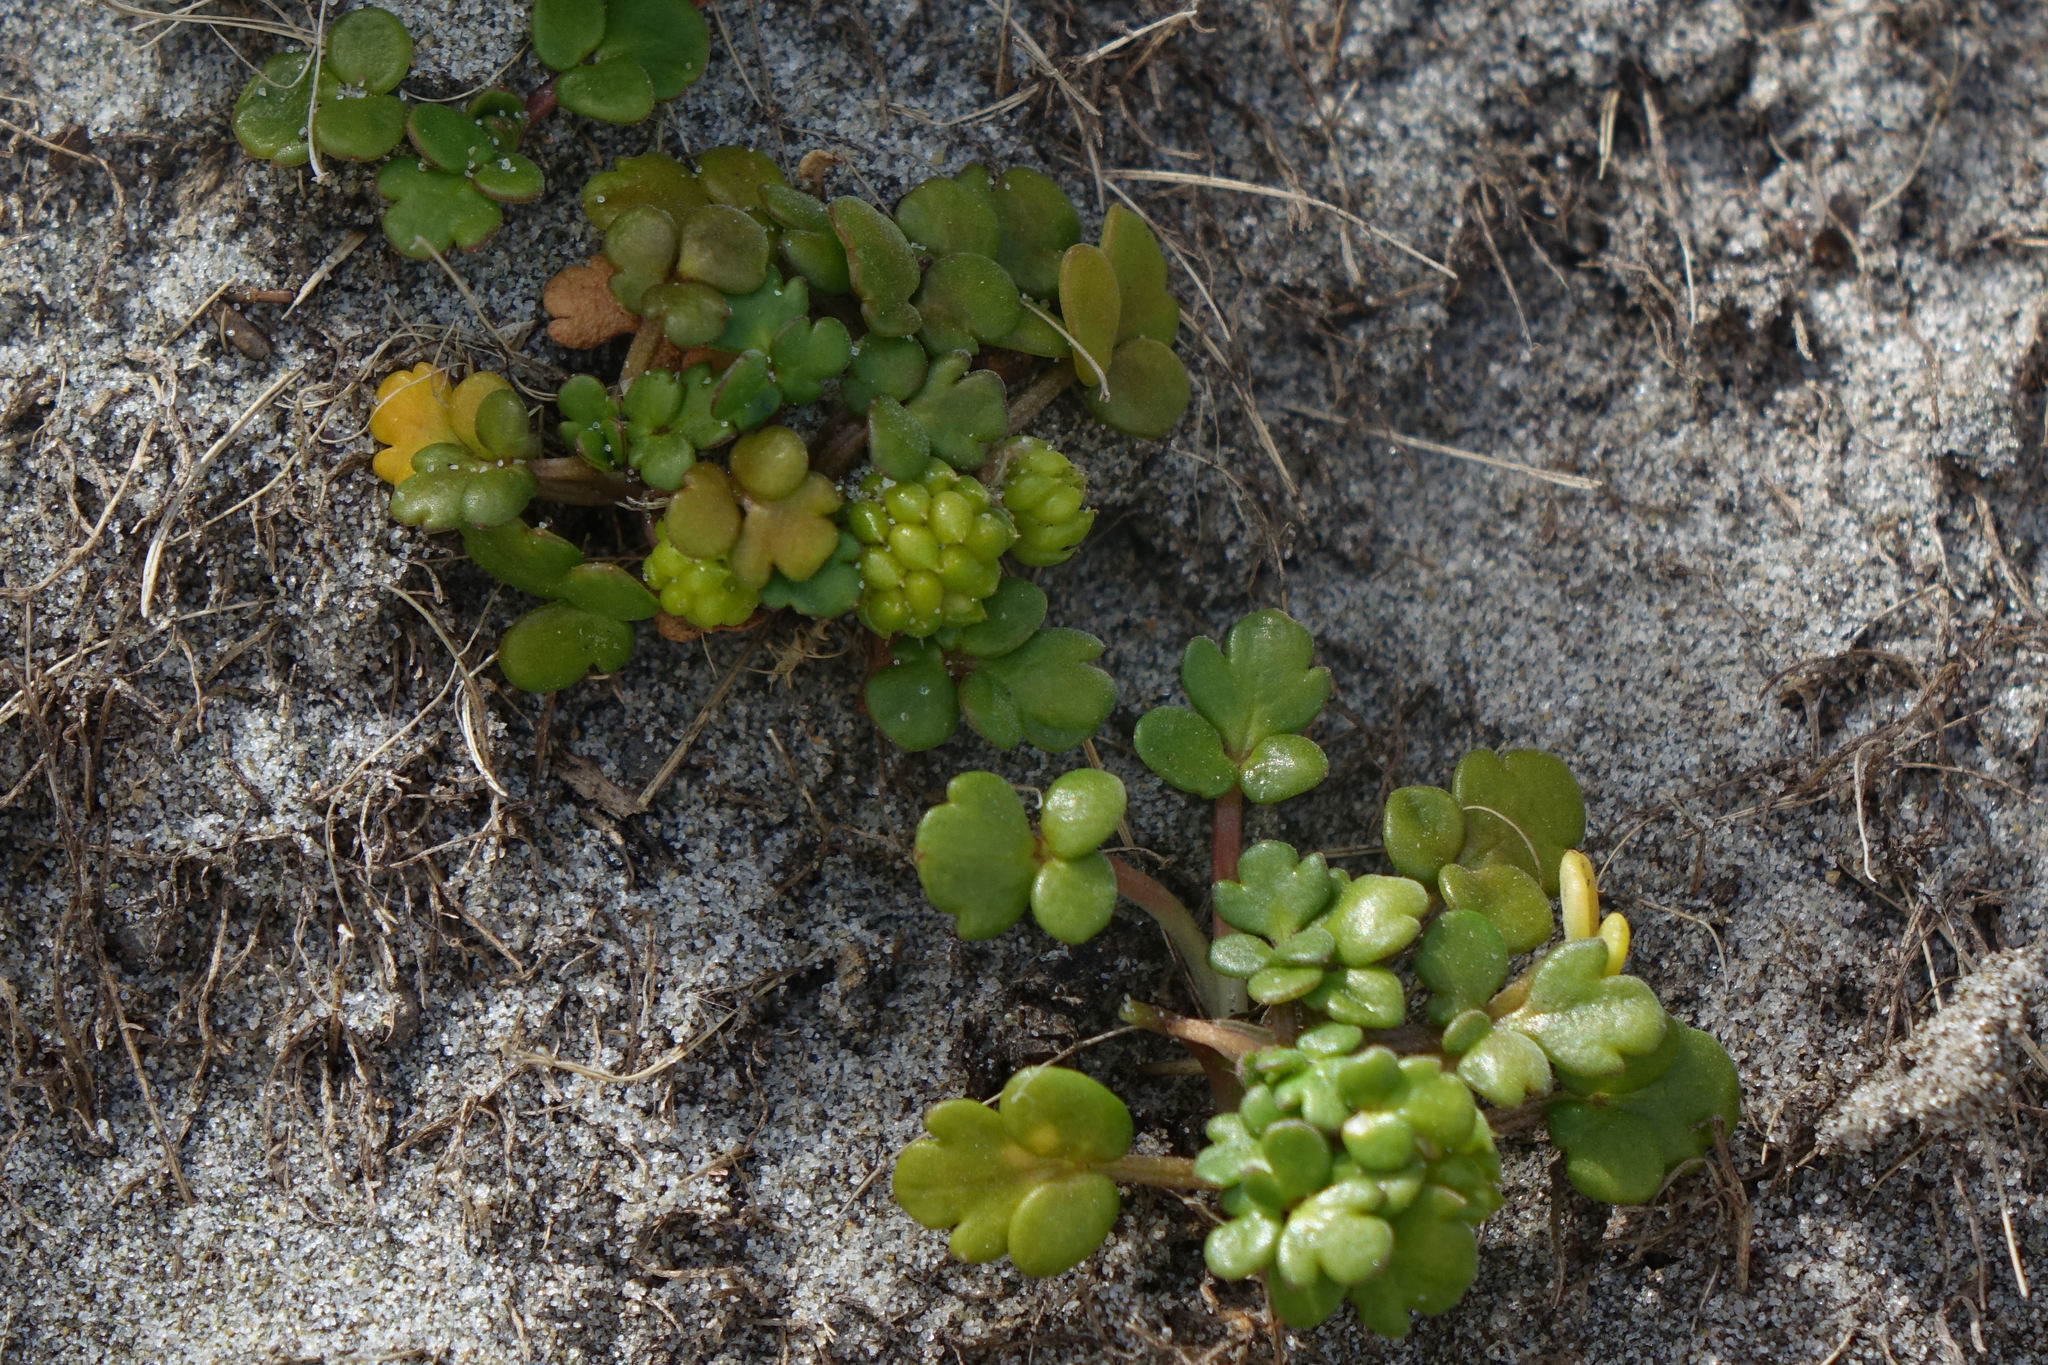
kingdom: Plantae
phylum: Tracheophyta
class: Magnoliopsida
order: Ranunculales
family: Ranunculaceae
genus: Ranunculus
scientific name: Ranunculus acaulis
